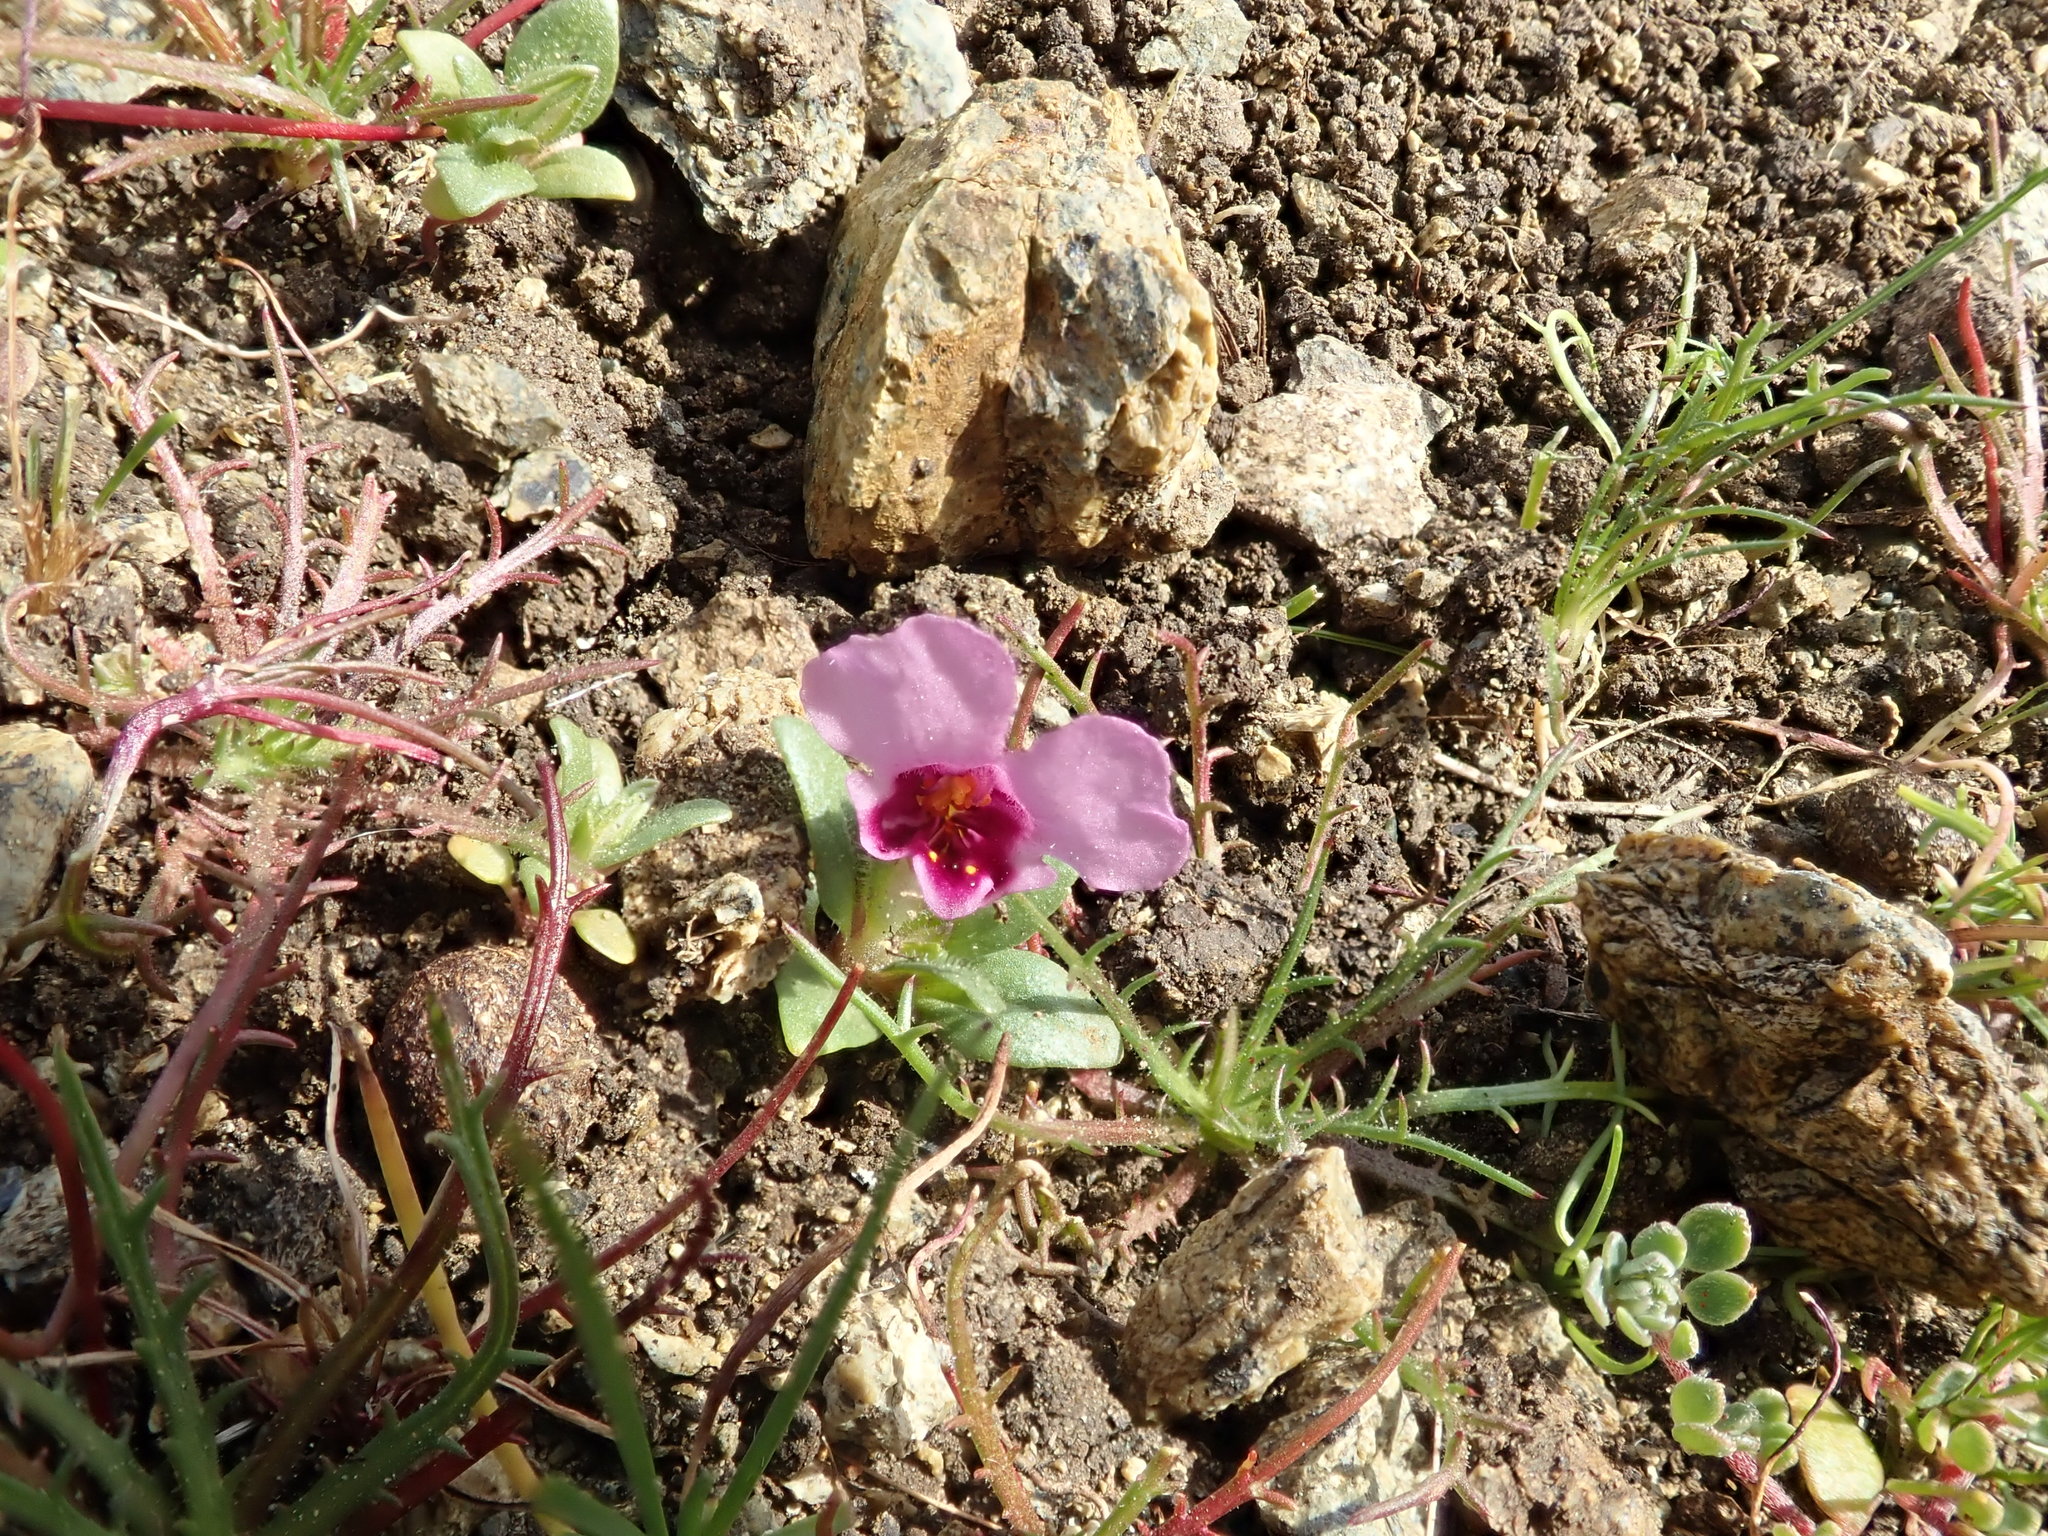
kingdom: Plantae
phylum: Tracheophyta
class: Magnoliopsida
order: Lamiales
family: Phrymaceae
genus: Diplacus
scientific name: Diplacus douglasii
